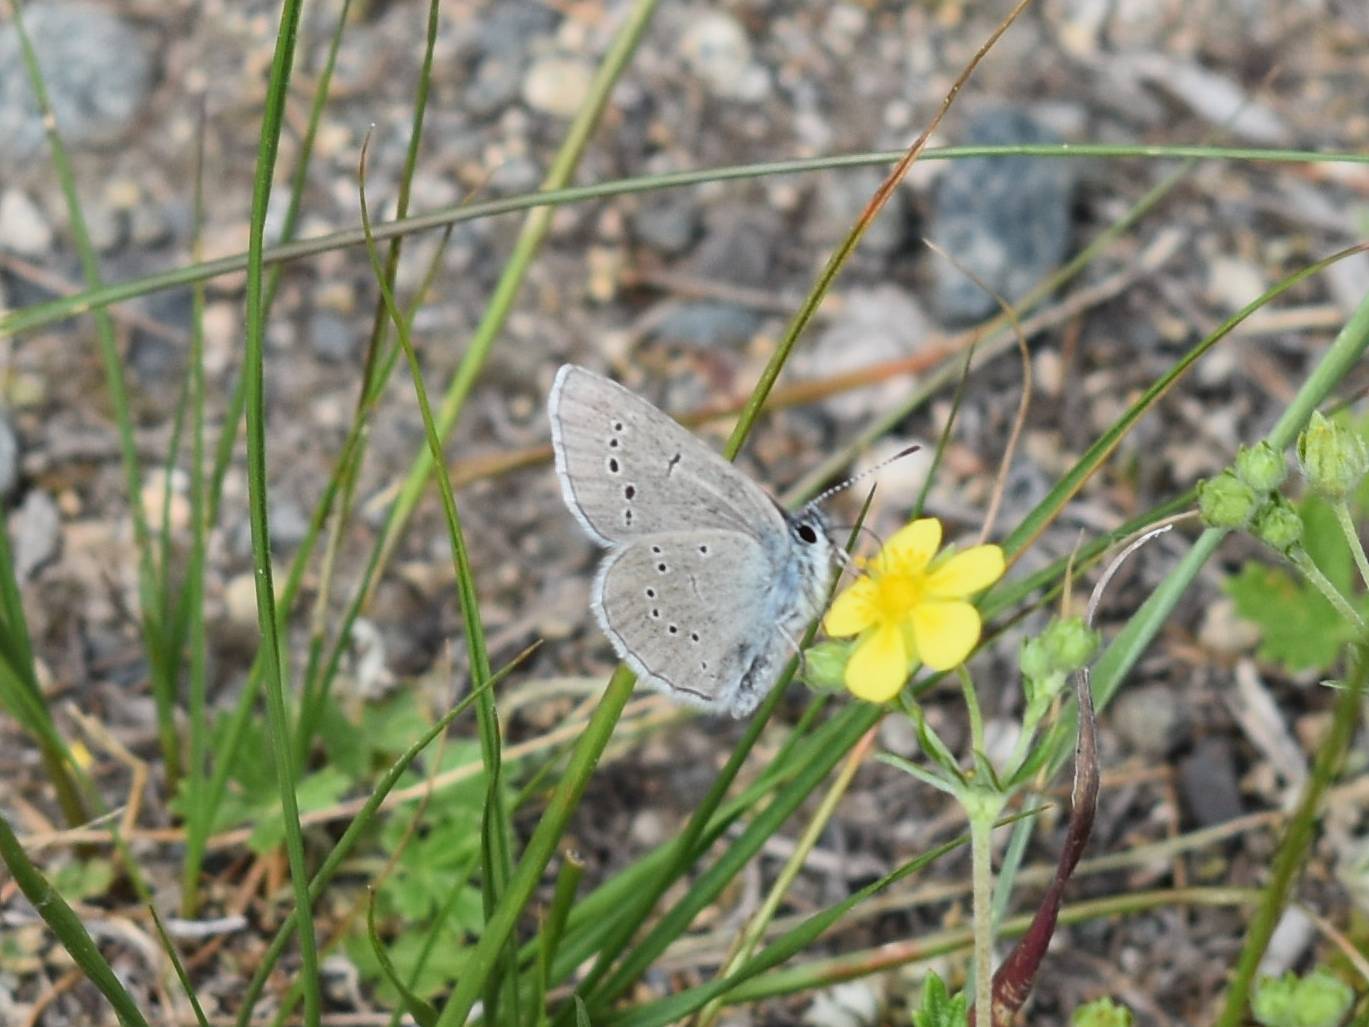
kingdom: Animalia
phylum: Arthropoda
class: Insecta
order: Lepidoptera
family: Lycaenidae
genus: Glaucopsyche
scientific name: Glaucopsyche lygdamus
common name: Silvery blue
